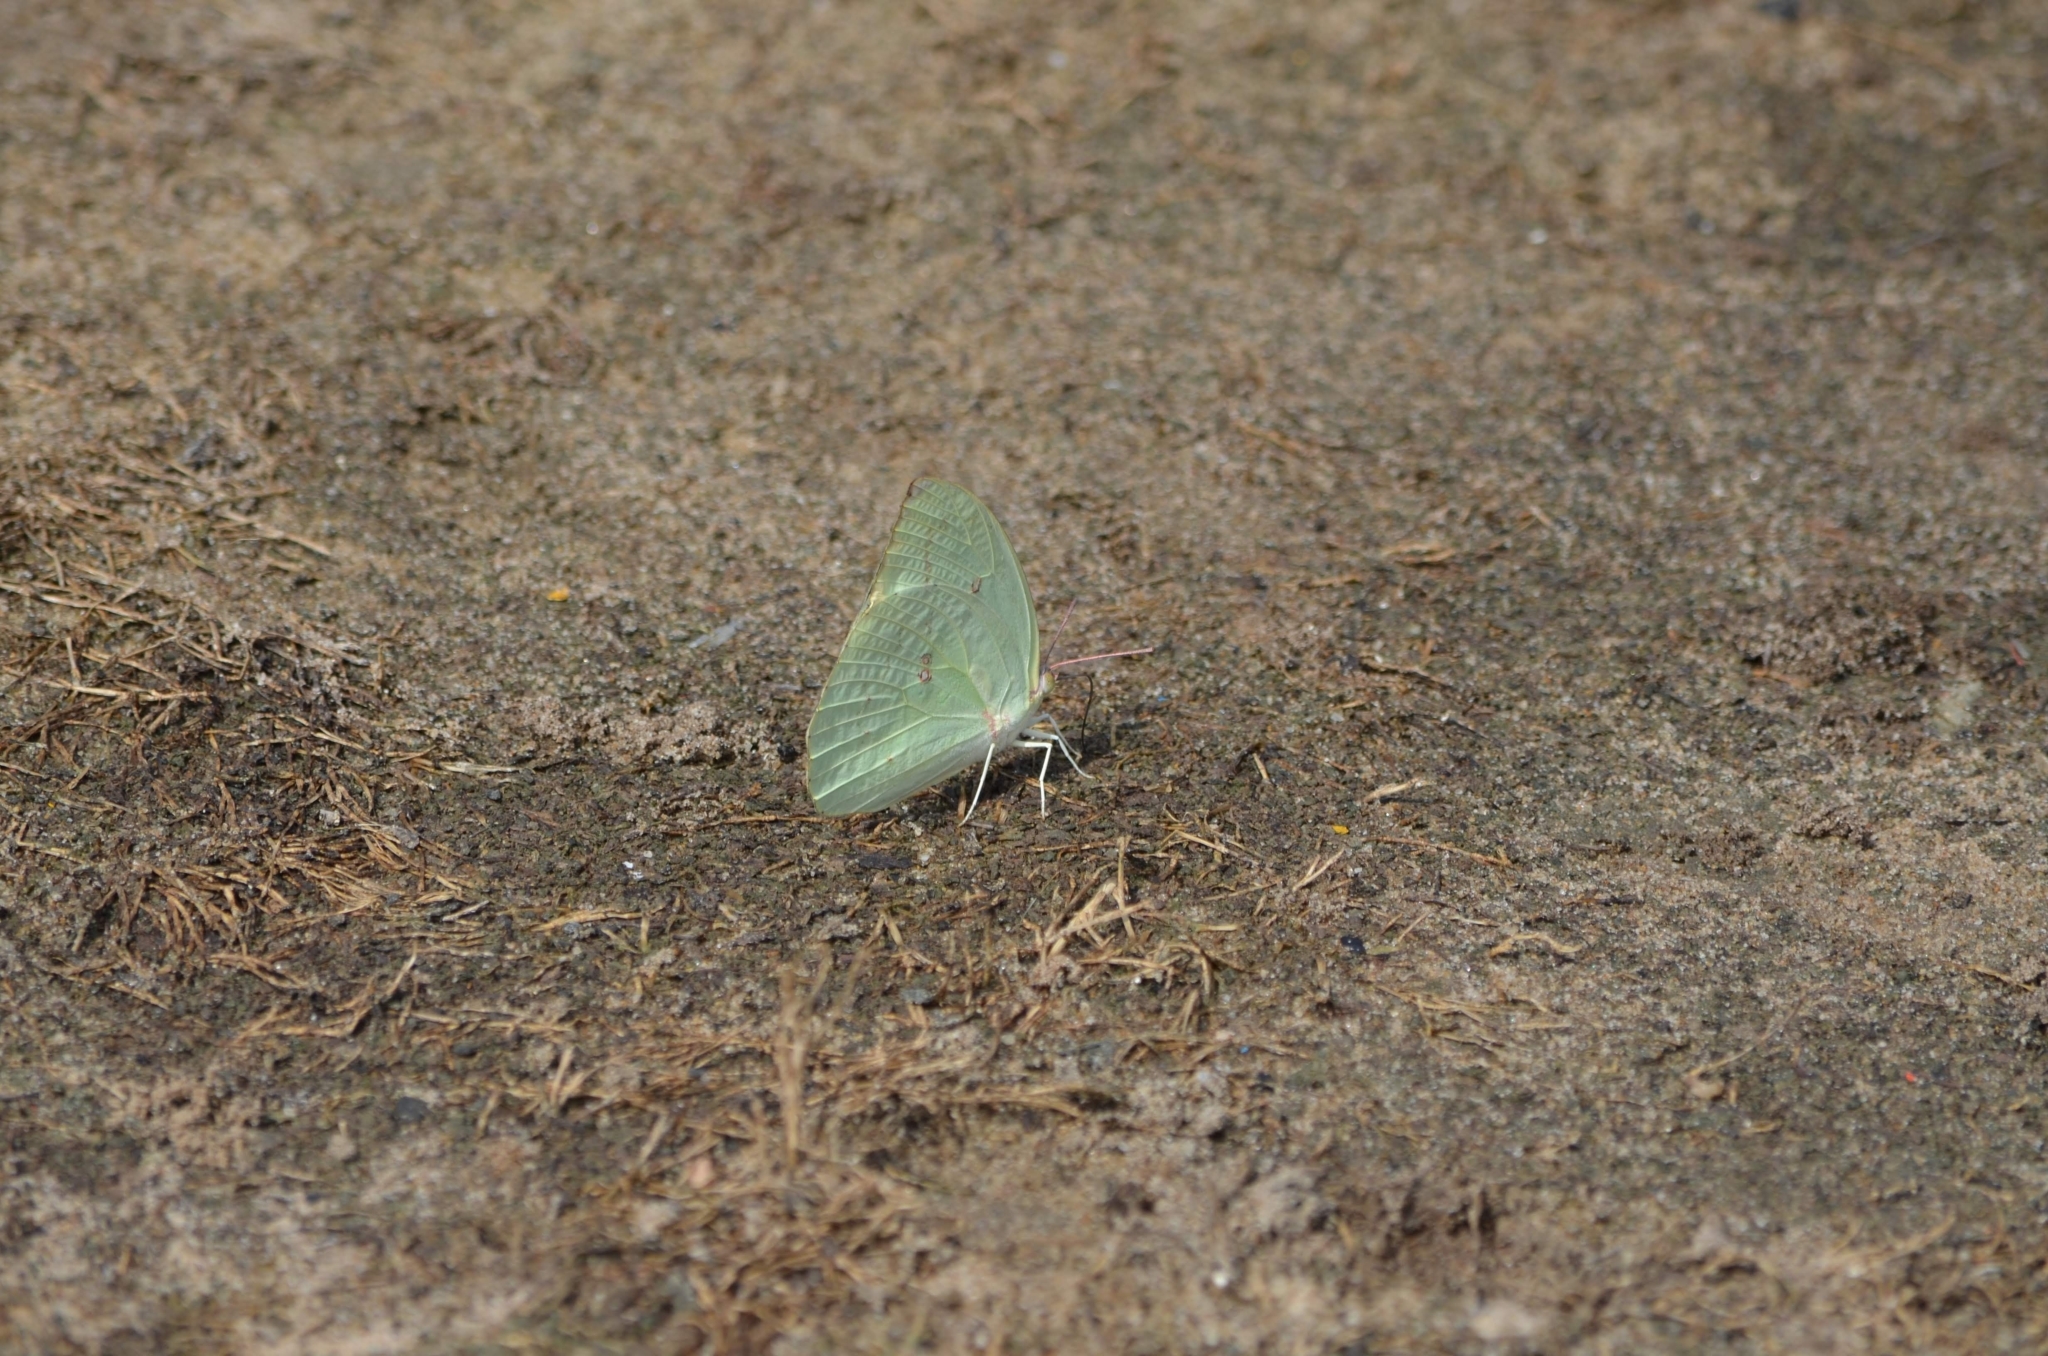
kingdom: Animalia
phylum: Arthropoda
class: Insecta
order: Lepidoptera
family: Pieridae
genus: Catopsilia
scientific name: Catopsilia pomona
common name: Common emigrant
